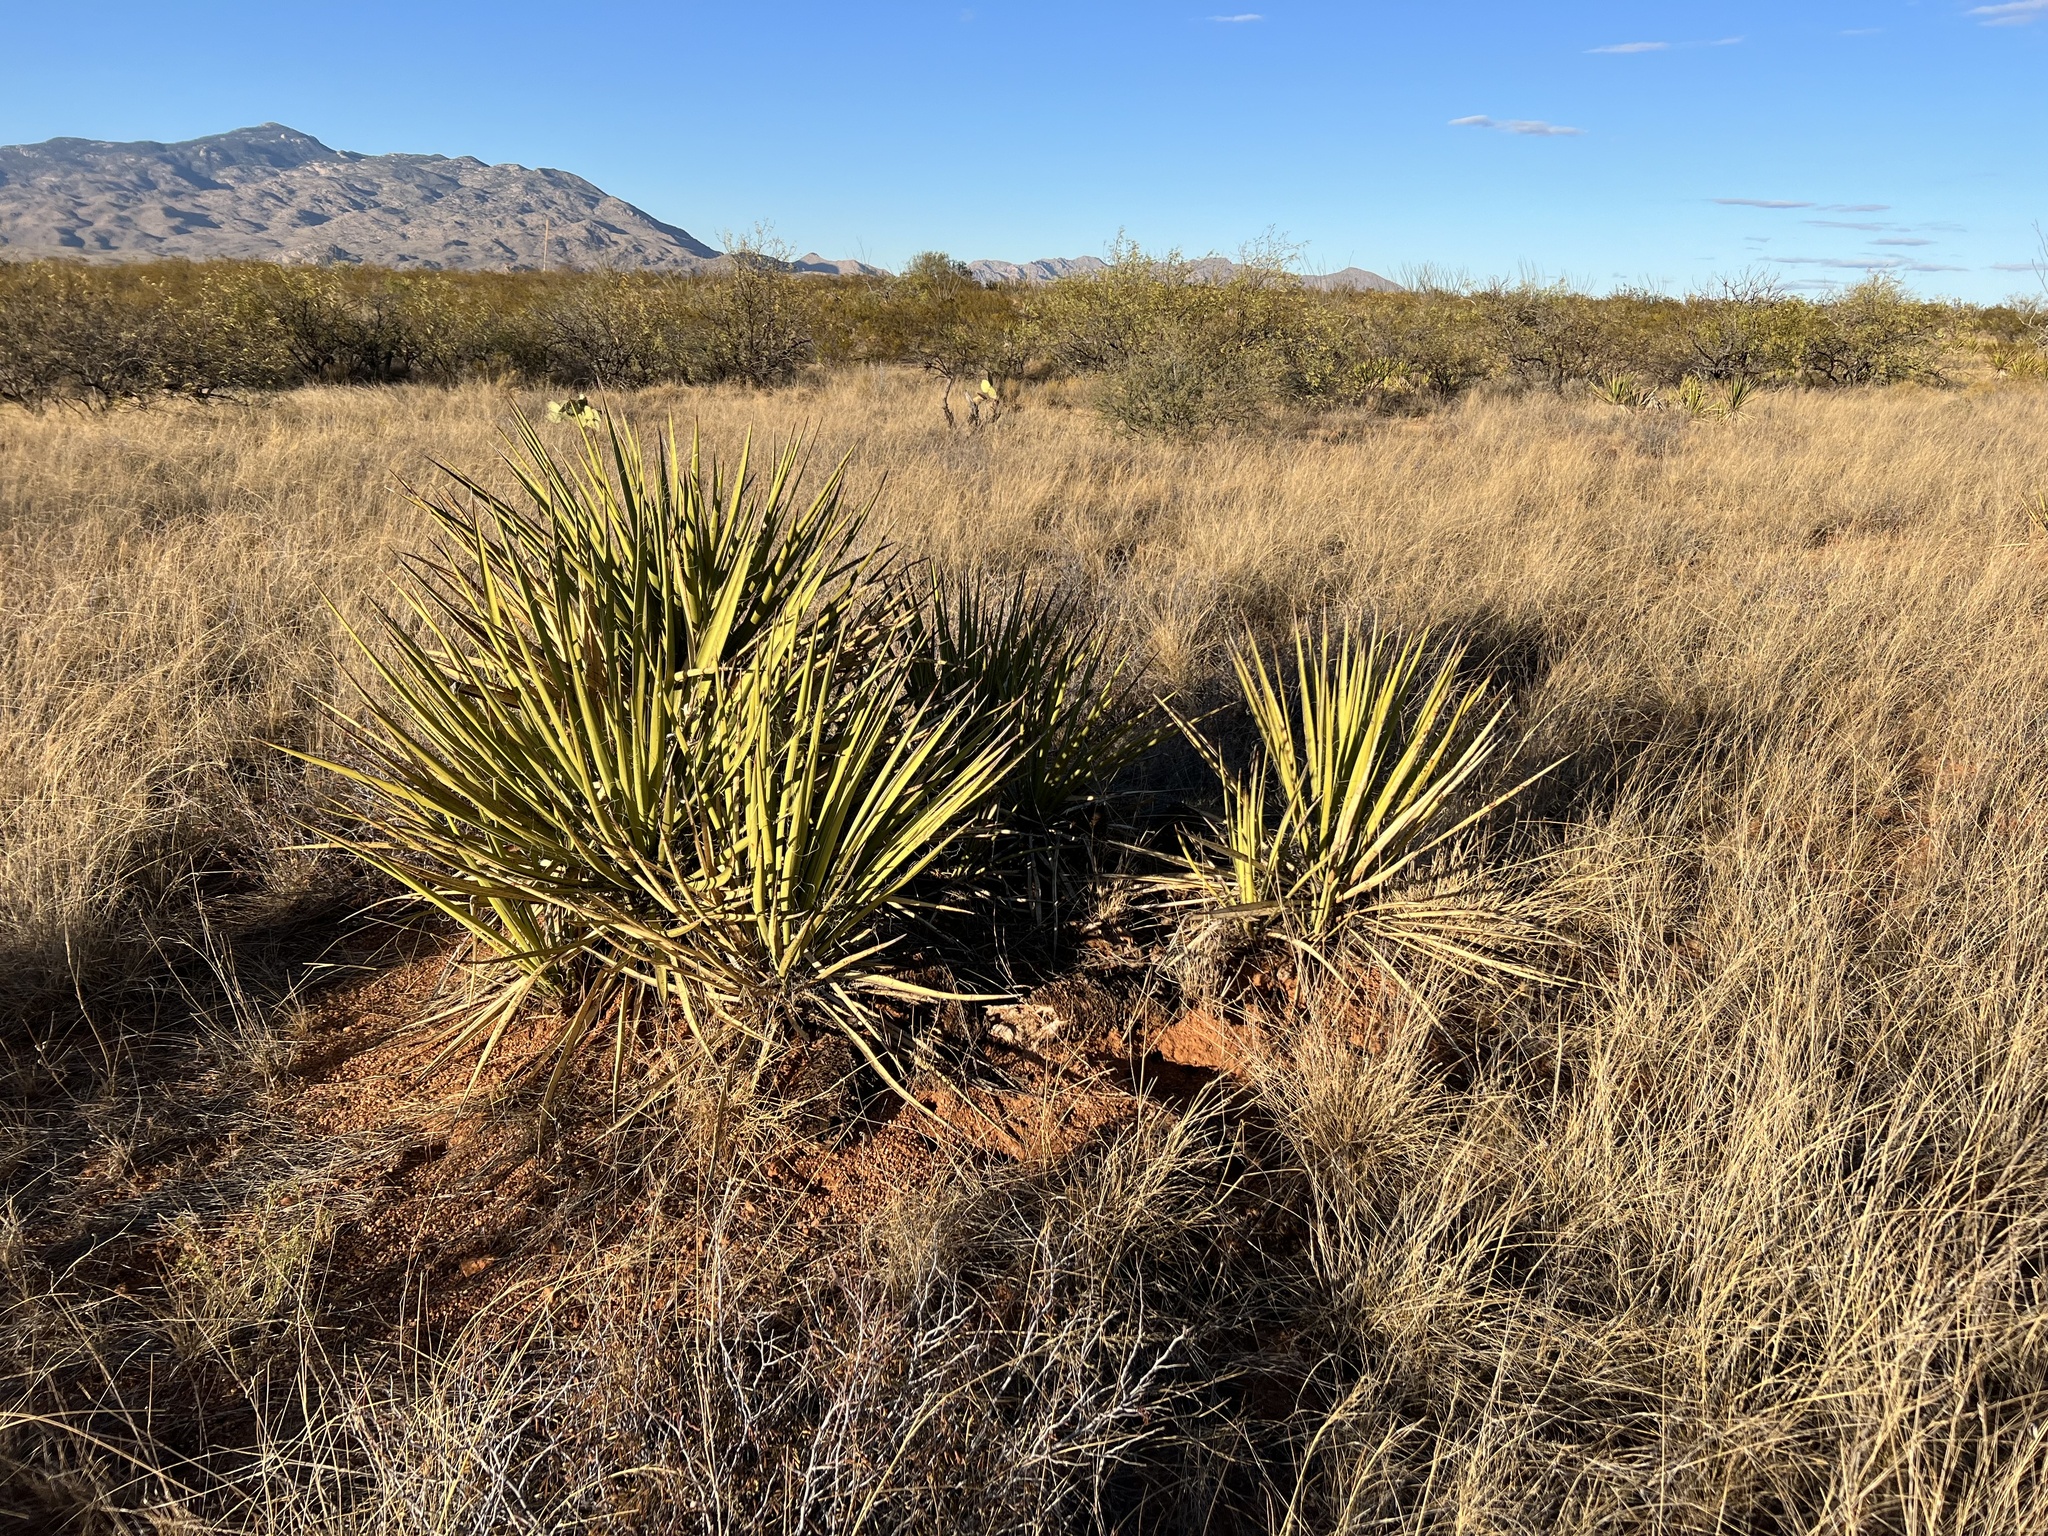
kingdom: Plantae
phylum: Tracheophyta
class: Liliopsida
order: Asparagales
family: Asparagaceae
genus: Yucca
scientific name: Yucca baccata
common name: Banana yucca
